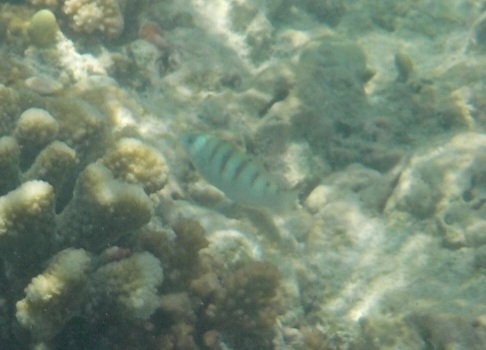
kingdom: Animalia
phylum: Chordata
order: Perciformes
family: Labridae
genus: Thalassoma
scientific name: Thalassoma hardwicke
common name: Sixbar wrasse
